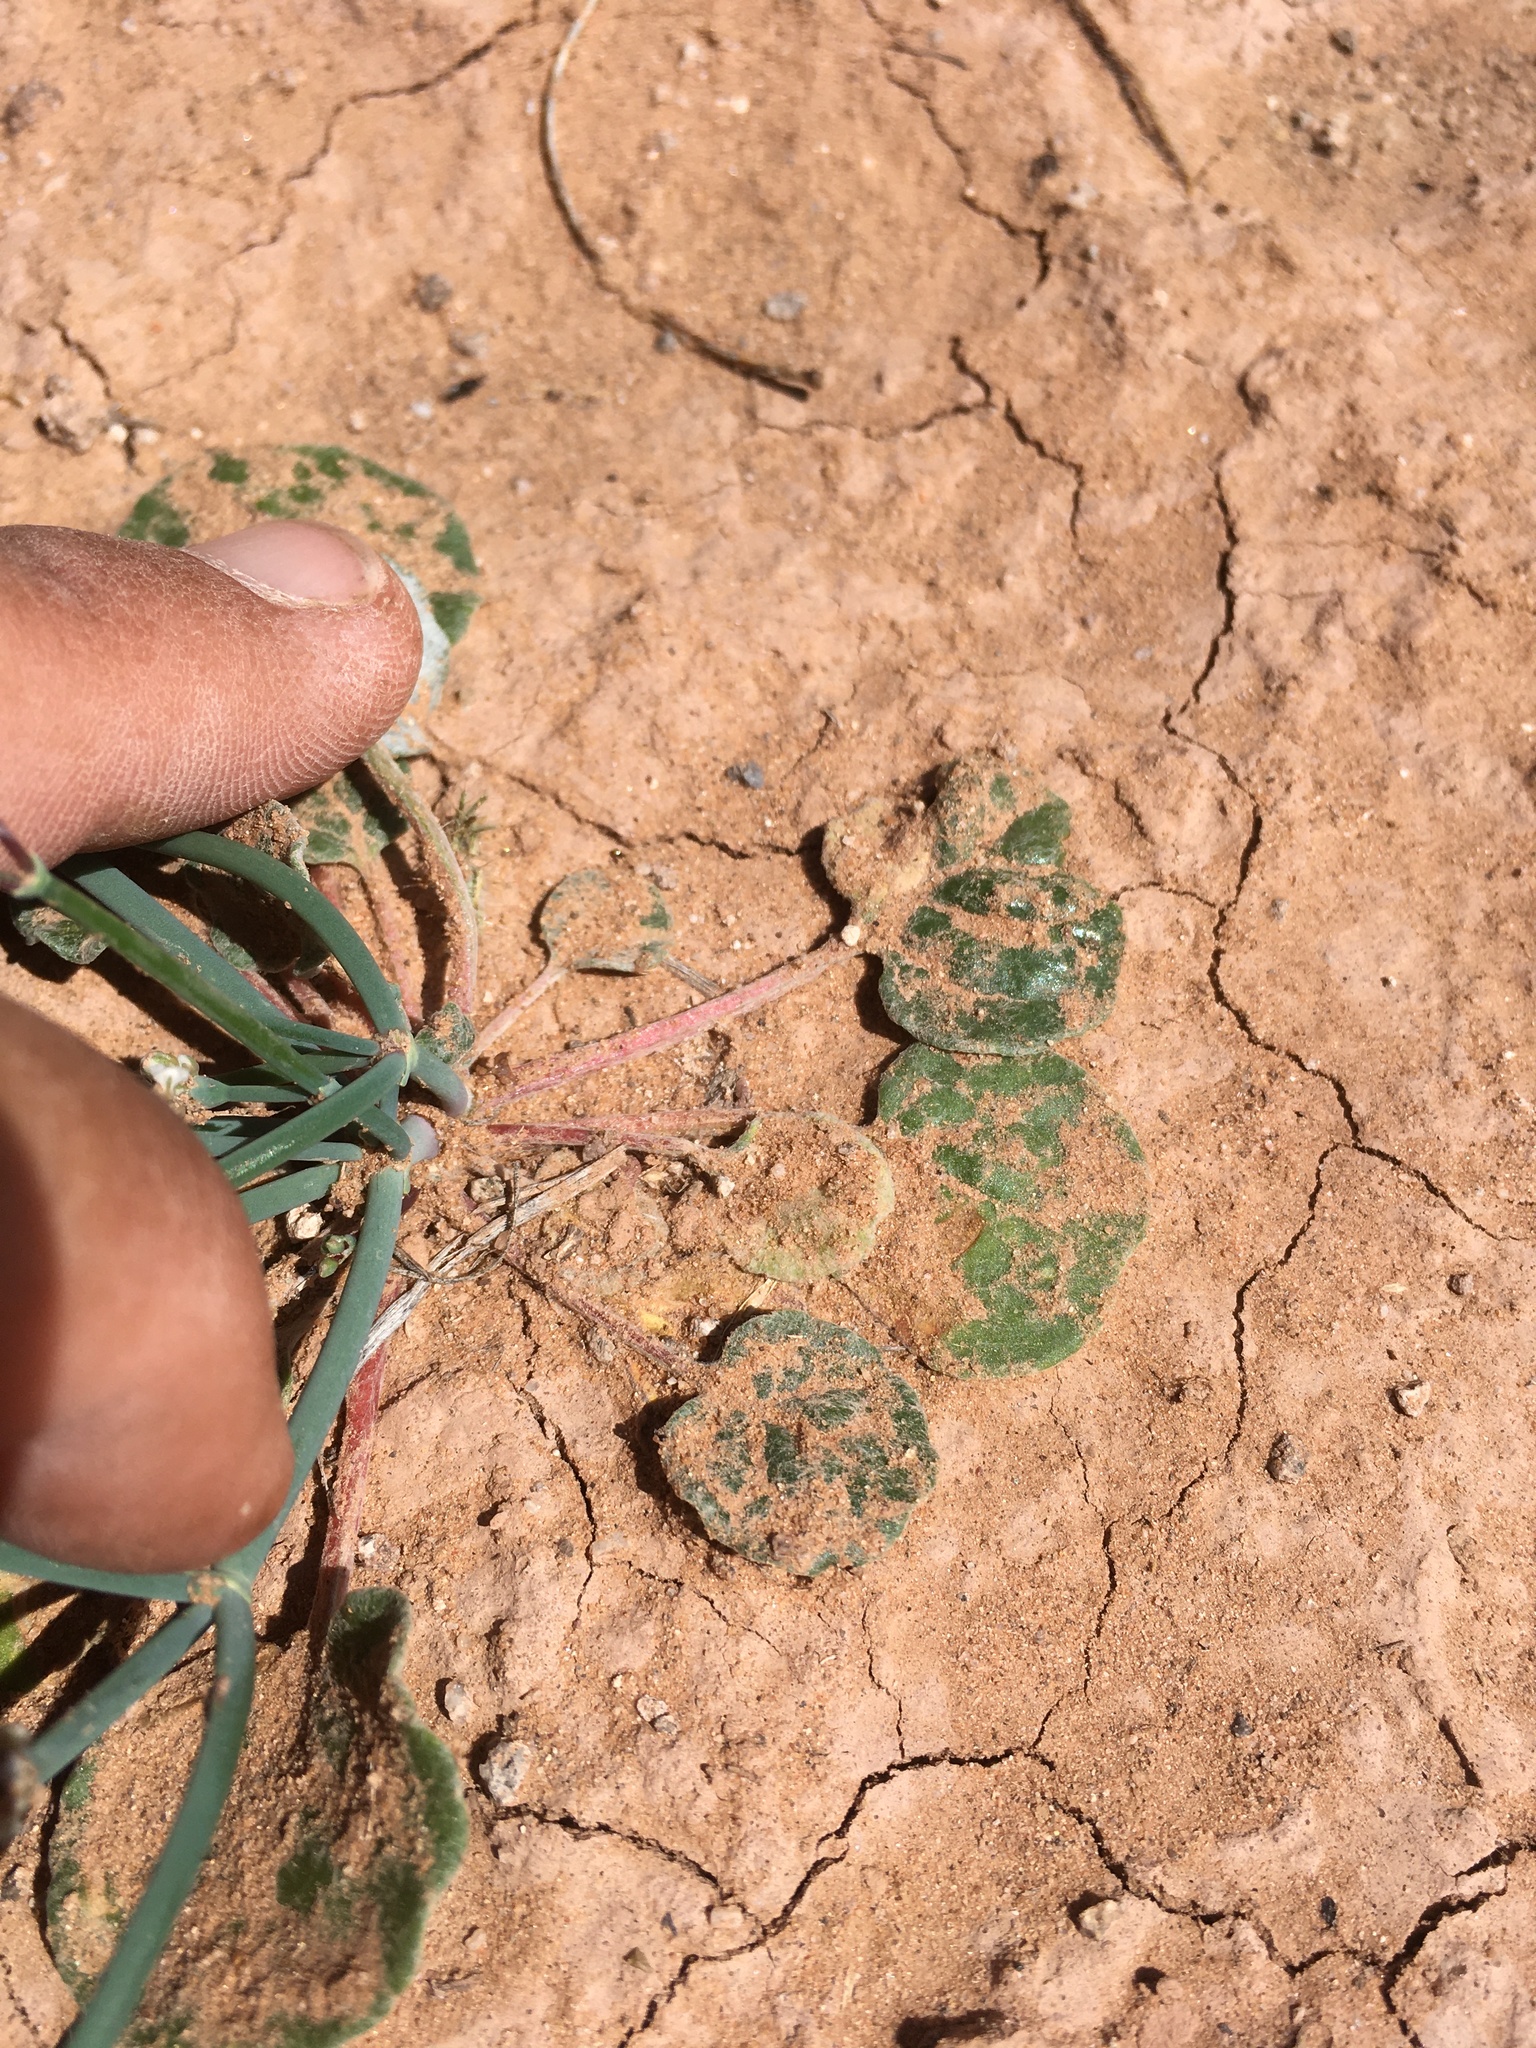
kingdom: Plantae
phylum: Tracheophyta
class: Magnoliopsida
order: Caryophyllales
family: Polygonaceae
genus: Eriogonum
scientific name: Eriogonum rotundifolium
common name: Round-leaf wild buckwheat
